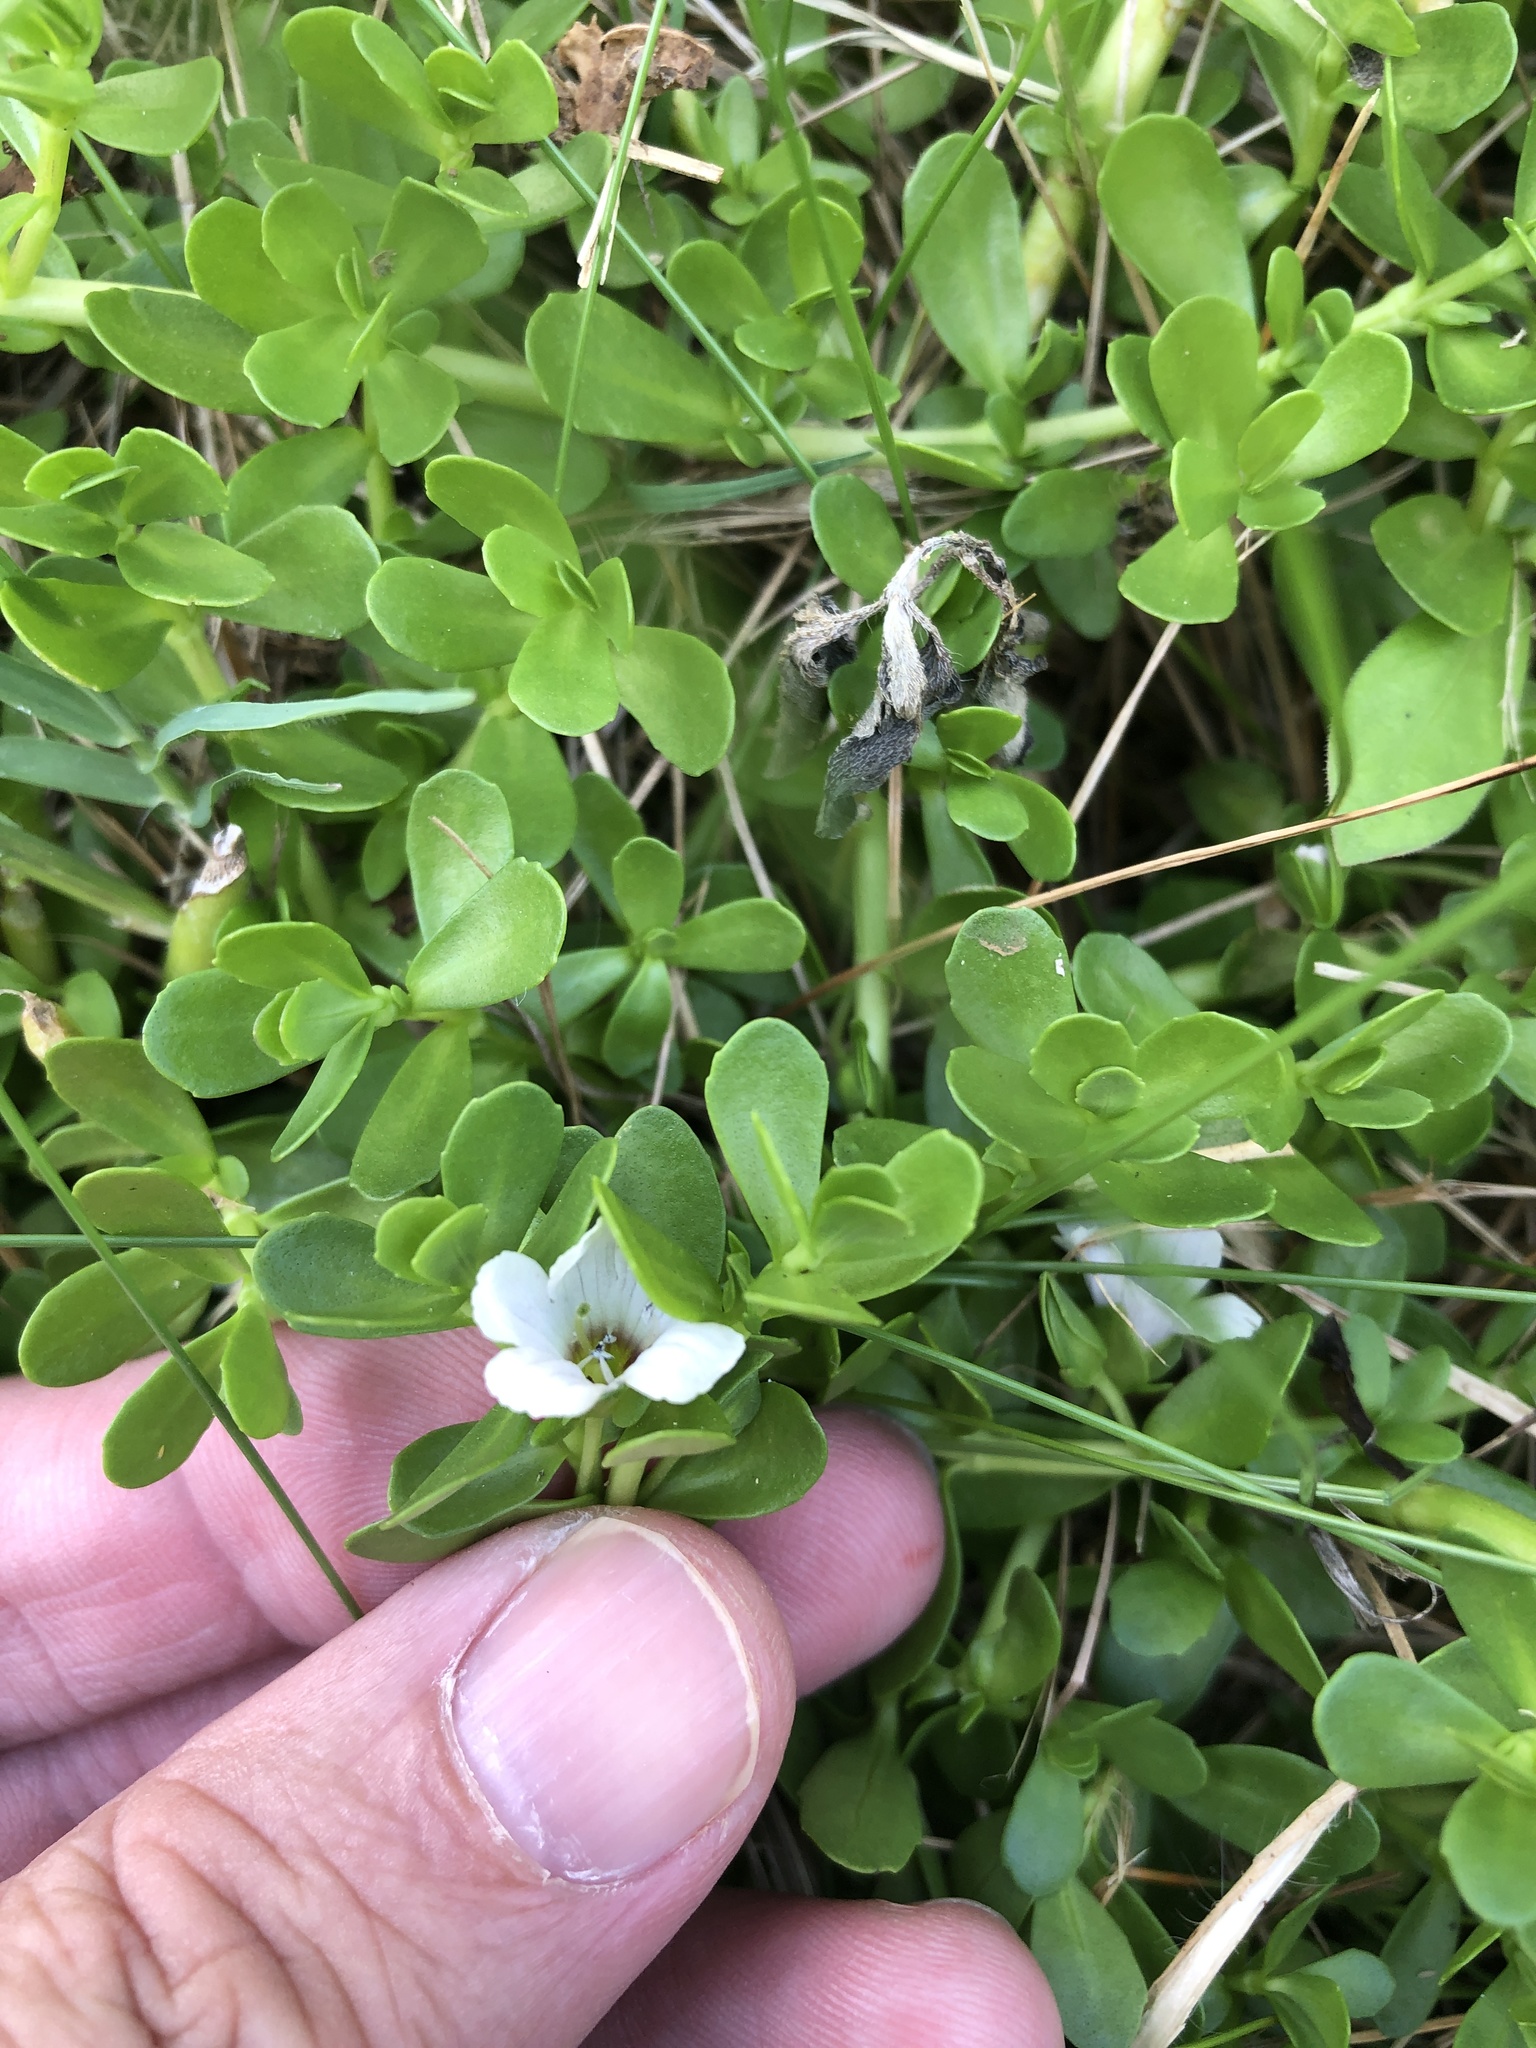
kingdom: Plantae
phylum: Tracheophyta
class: Magnoliopsida
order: Lamiales
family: Plantaginaceae
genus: Bacopa
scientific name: Bacopa monnieri
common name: Indian-pennywort
